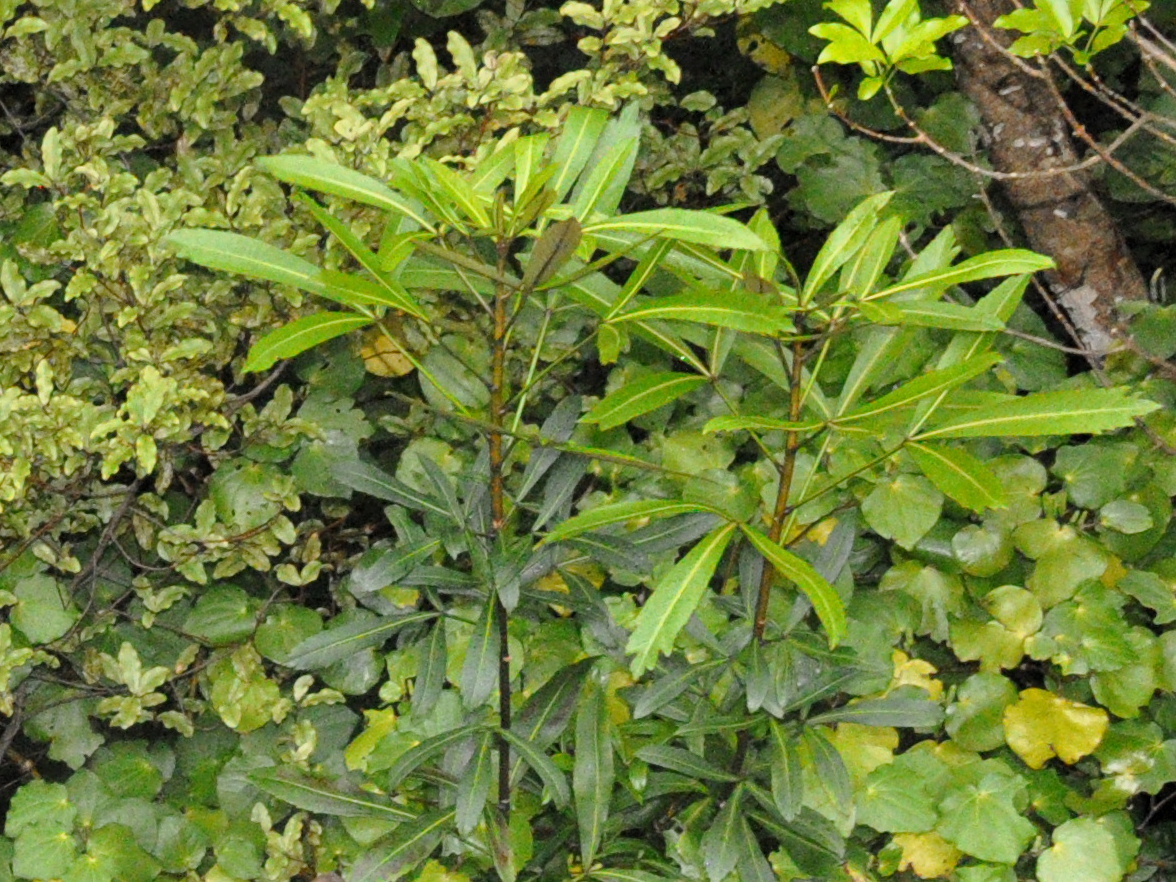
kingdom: Plantae
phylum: Tracheophyta
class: Magnoliopsida
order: Apiales
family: Araliaceae
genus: Pseudopanax
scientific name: Pseudopanax
